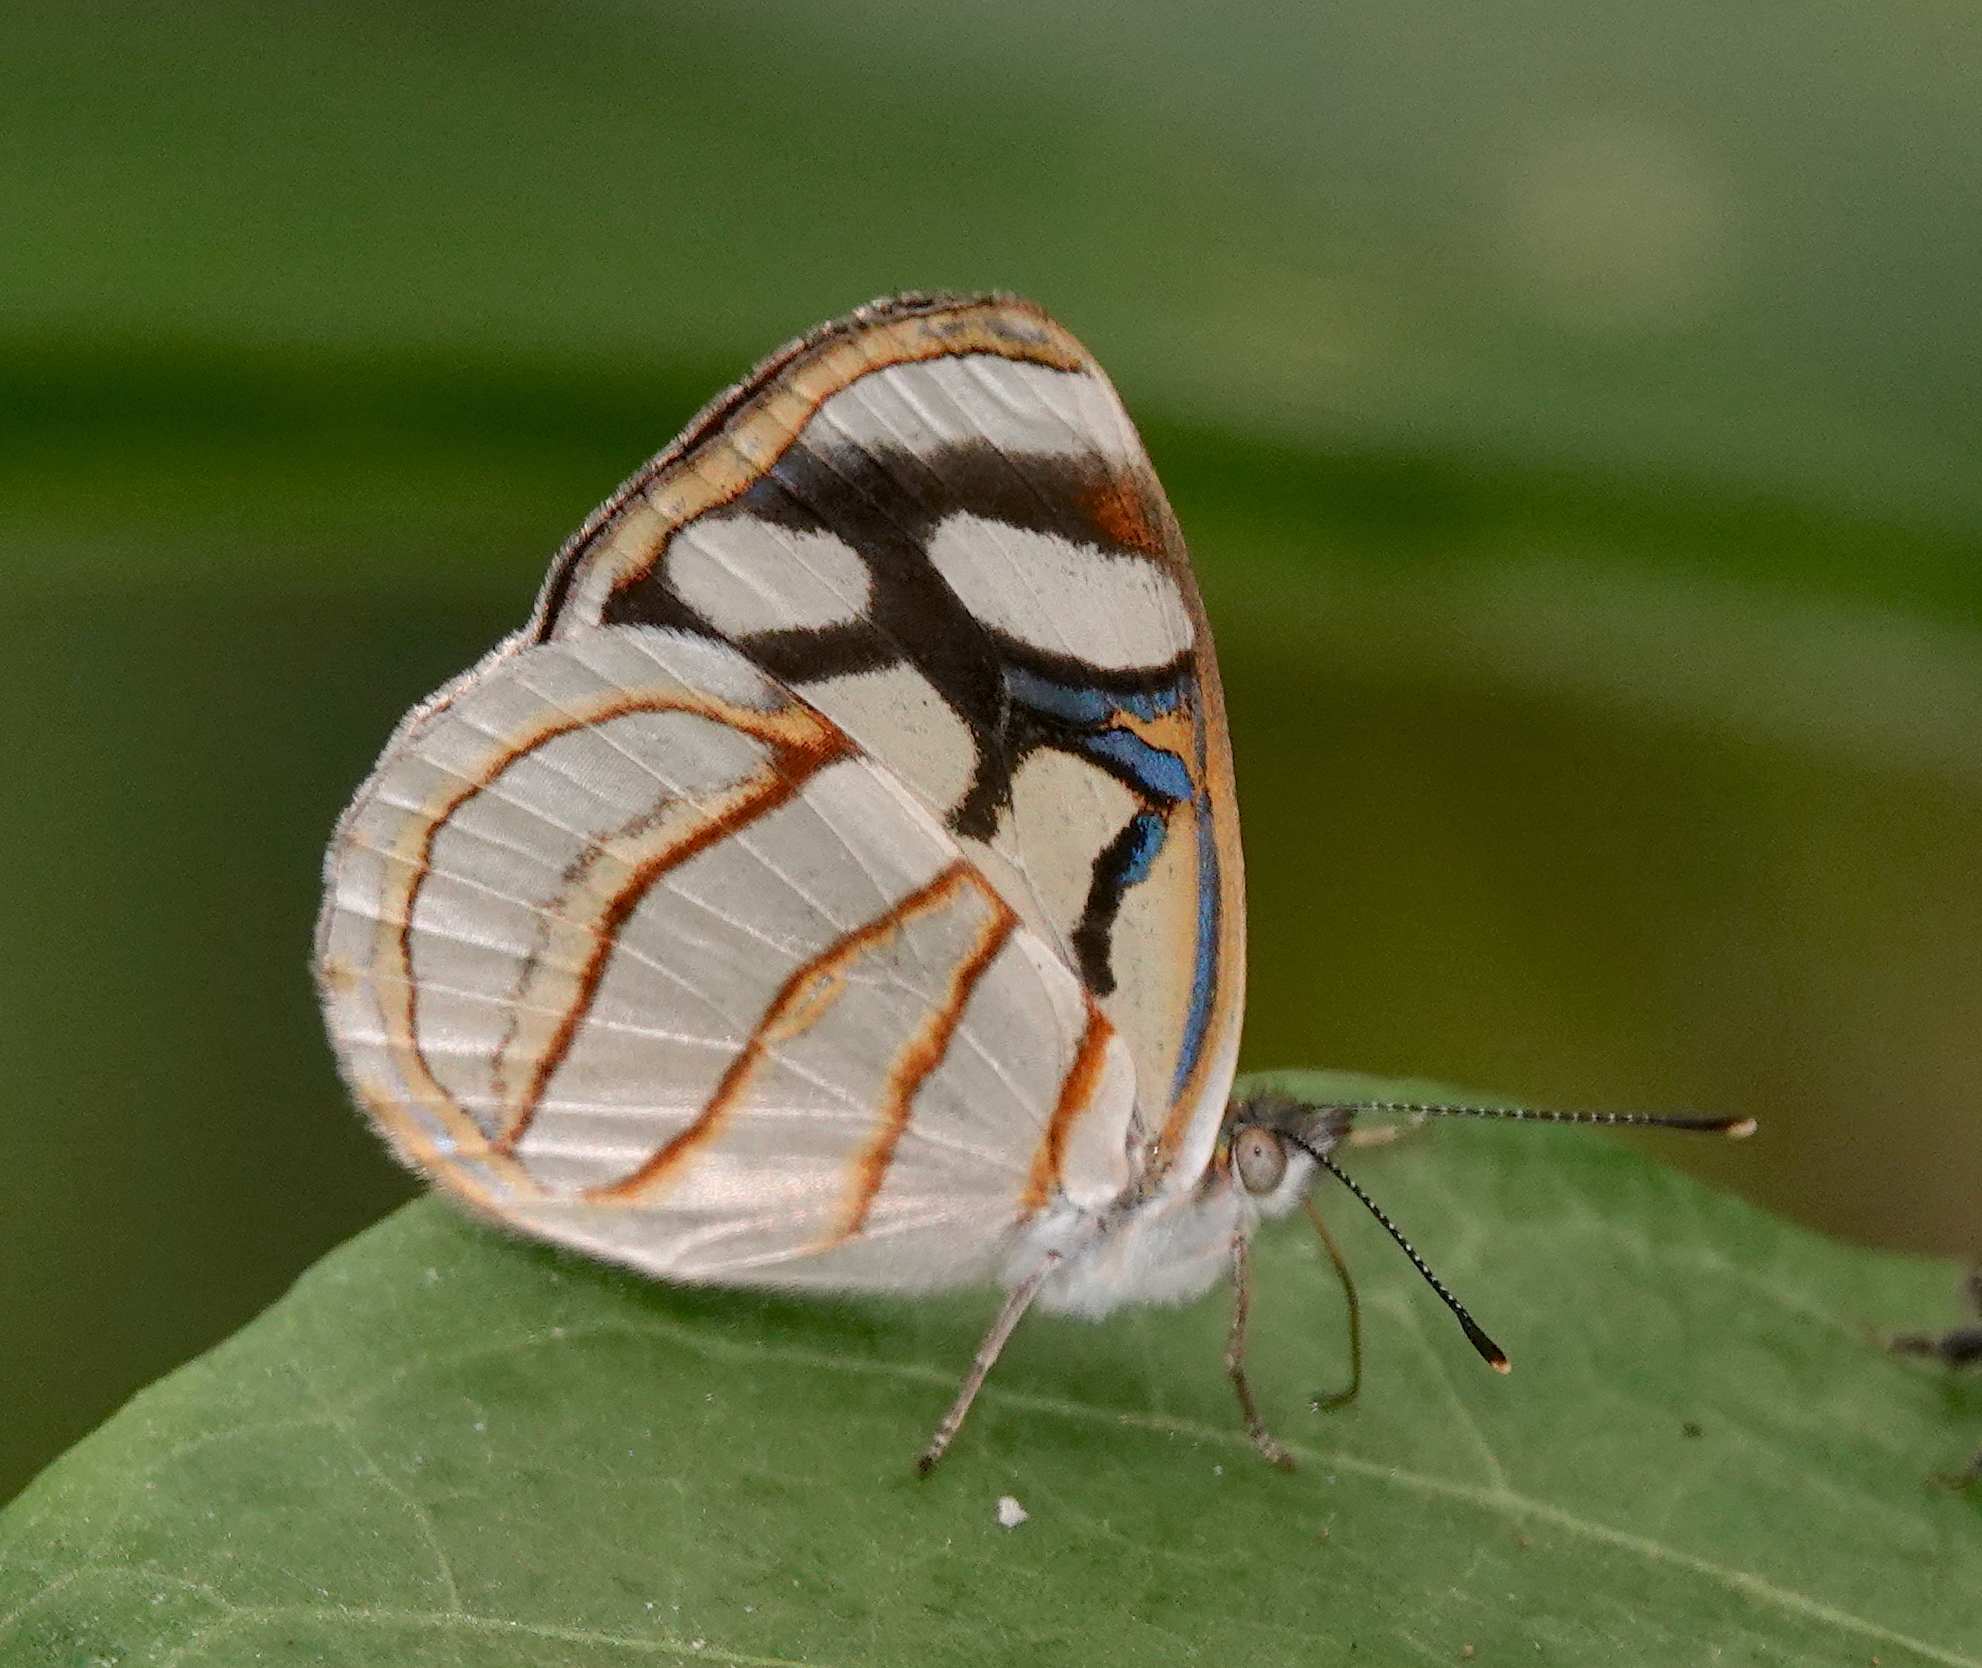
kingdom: Animalia
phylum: Arthropoda
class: Insecta
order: Lepidoptera
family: Nymphalidae
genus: Dynamine
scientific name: Dynamine setabis
